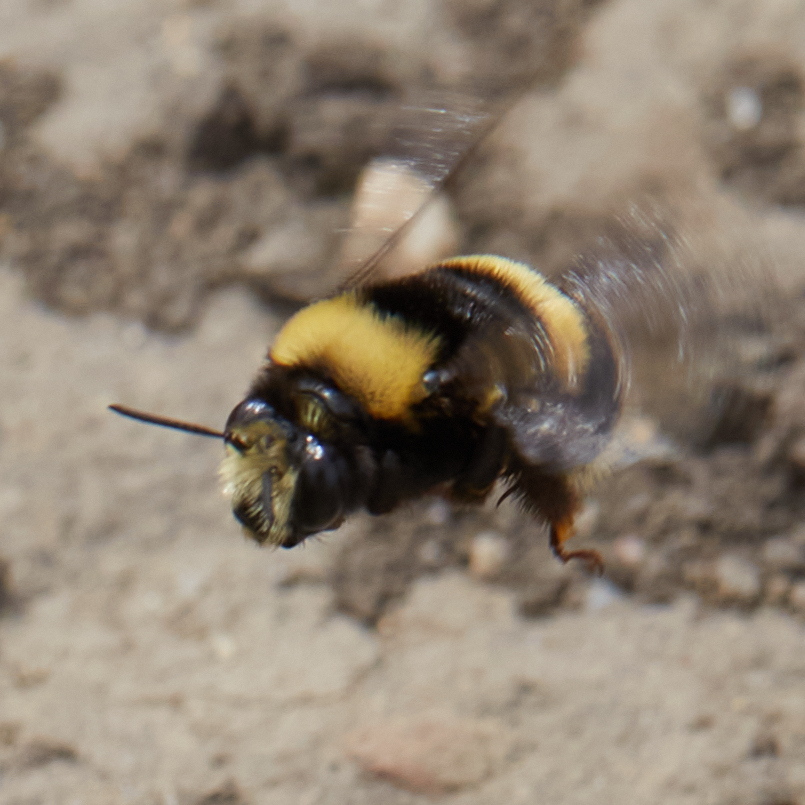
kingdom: Animalia
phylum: Arthropoda
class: Insecta
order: Hymenoptera
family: Apidae
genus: Anthophora
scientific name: Anthophora bomboides
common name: Bumble-bee-mimic digger bee
